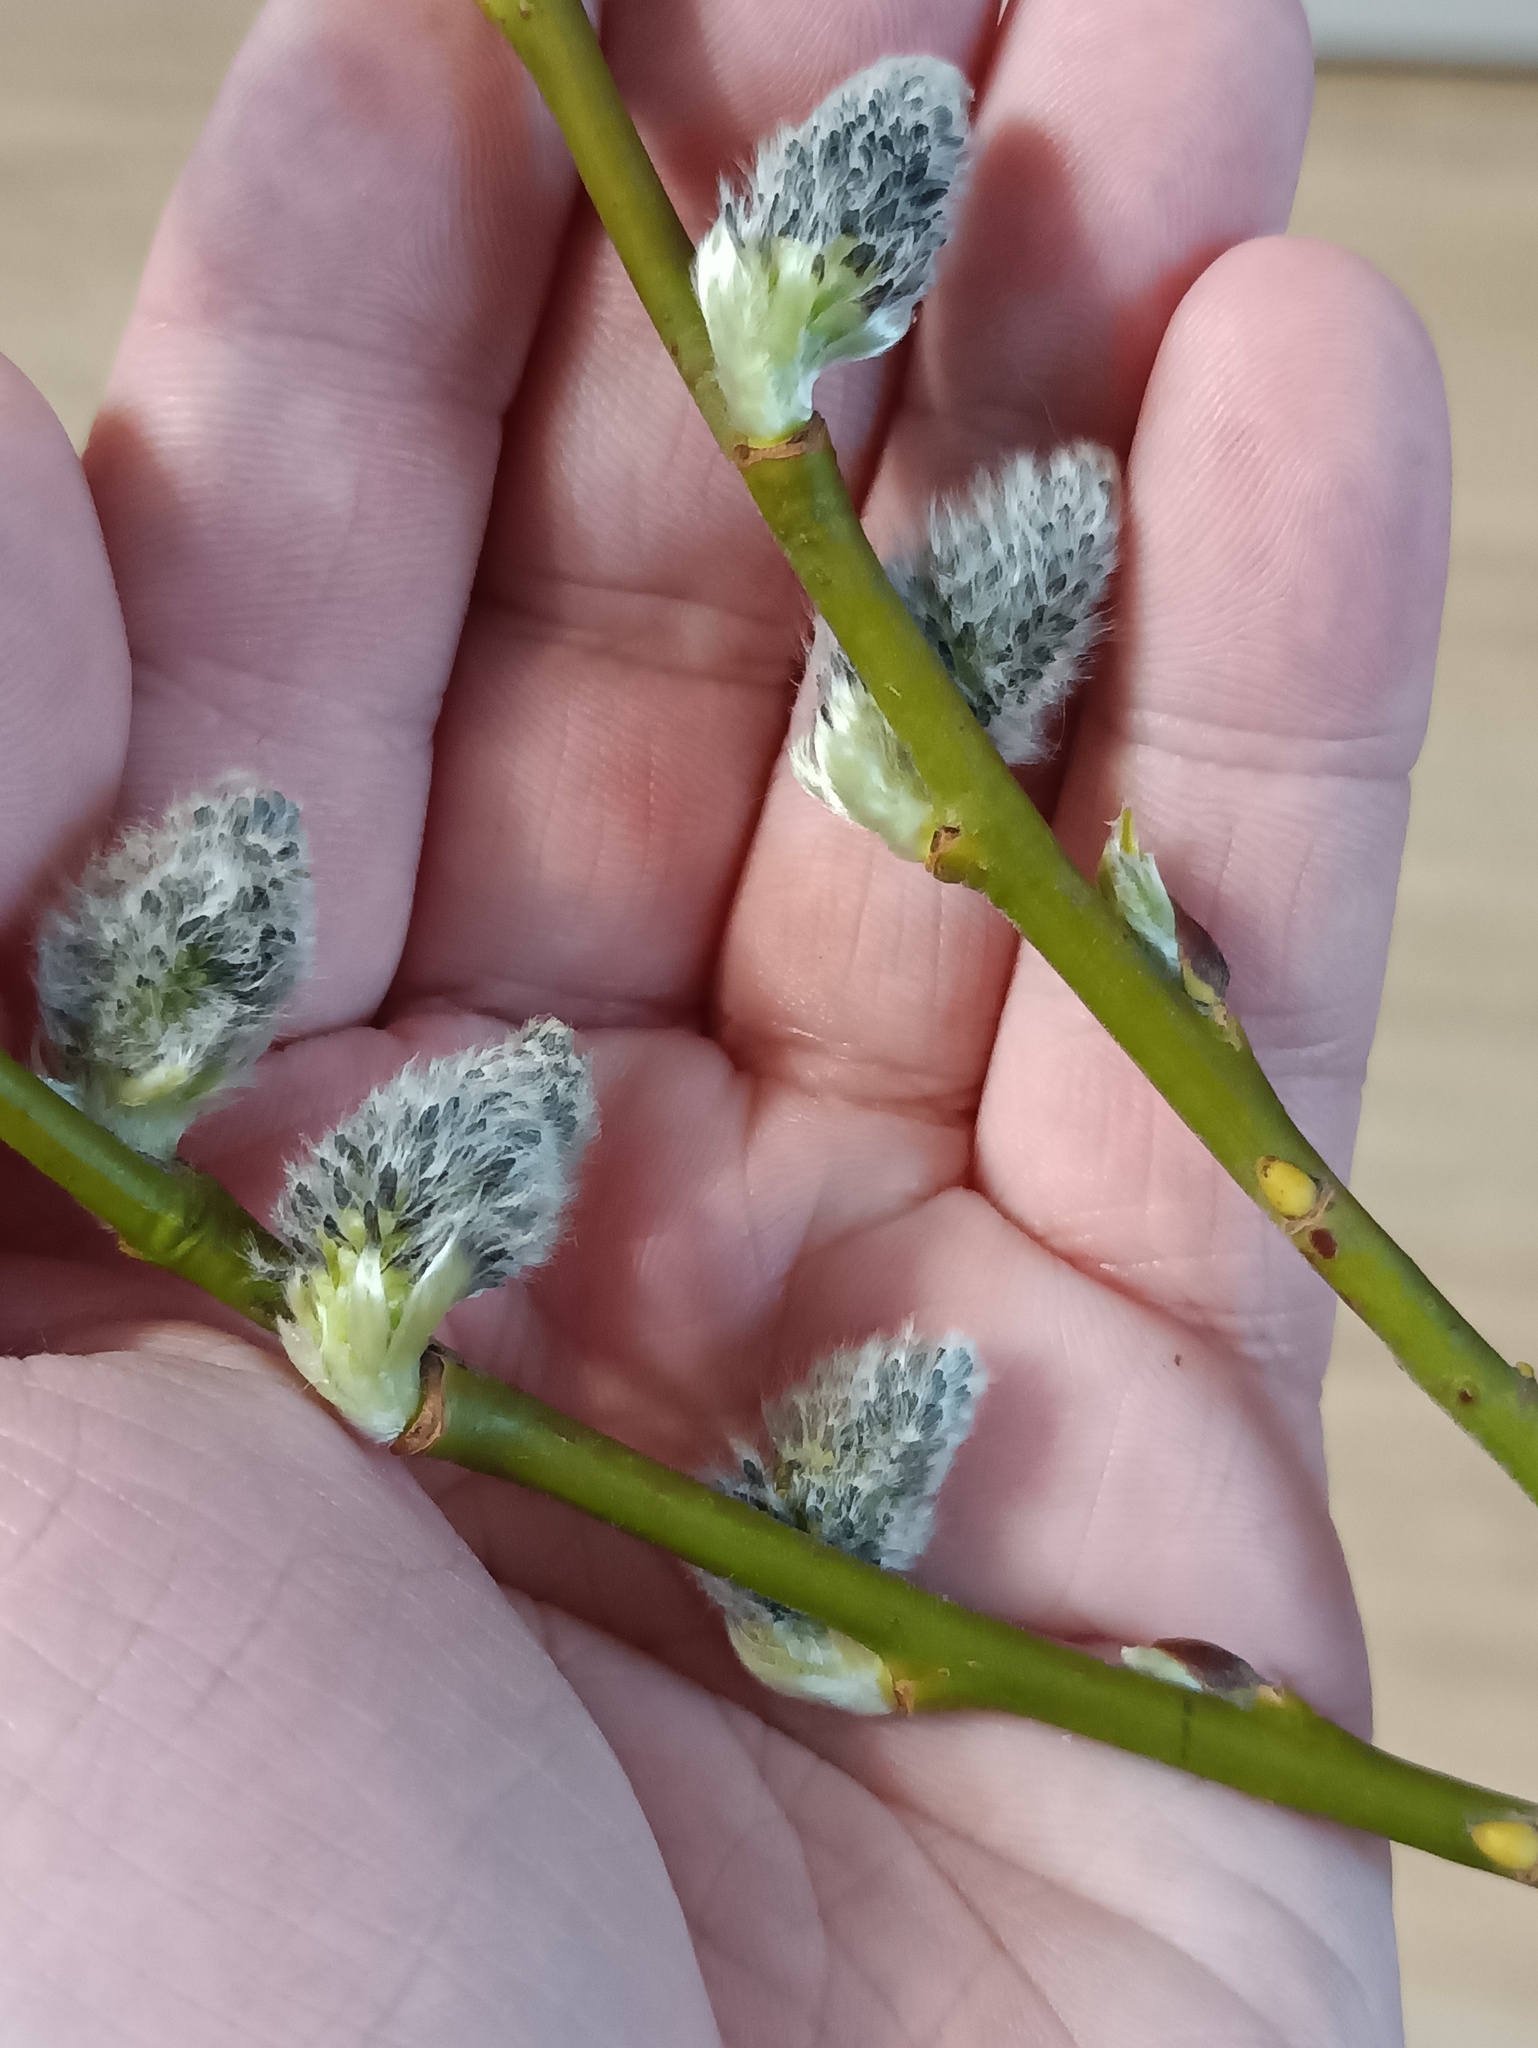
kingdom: Plantae
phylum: Tracheophyta
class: Magnoliopsida
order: Malpighiales
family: Salicaceae
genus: Salix
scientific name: Salix caprea
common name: Goat willow
